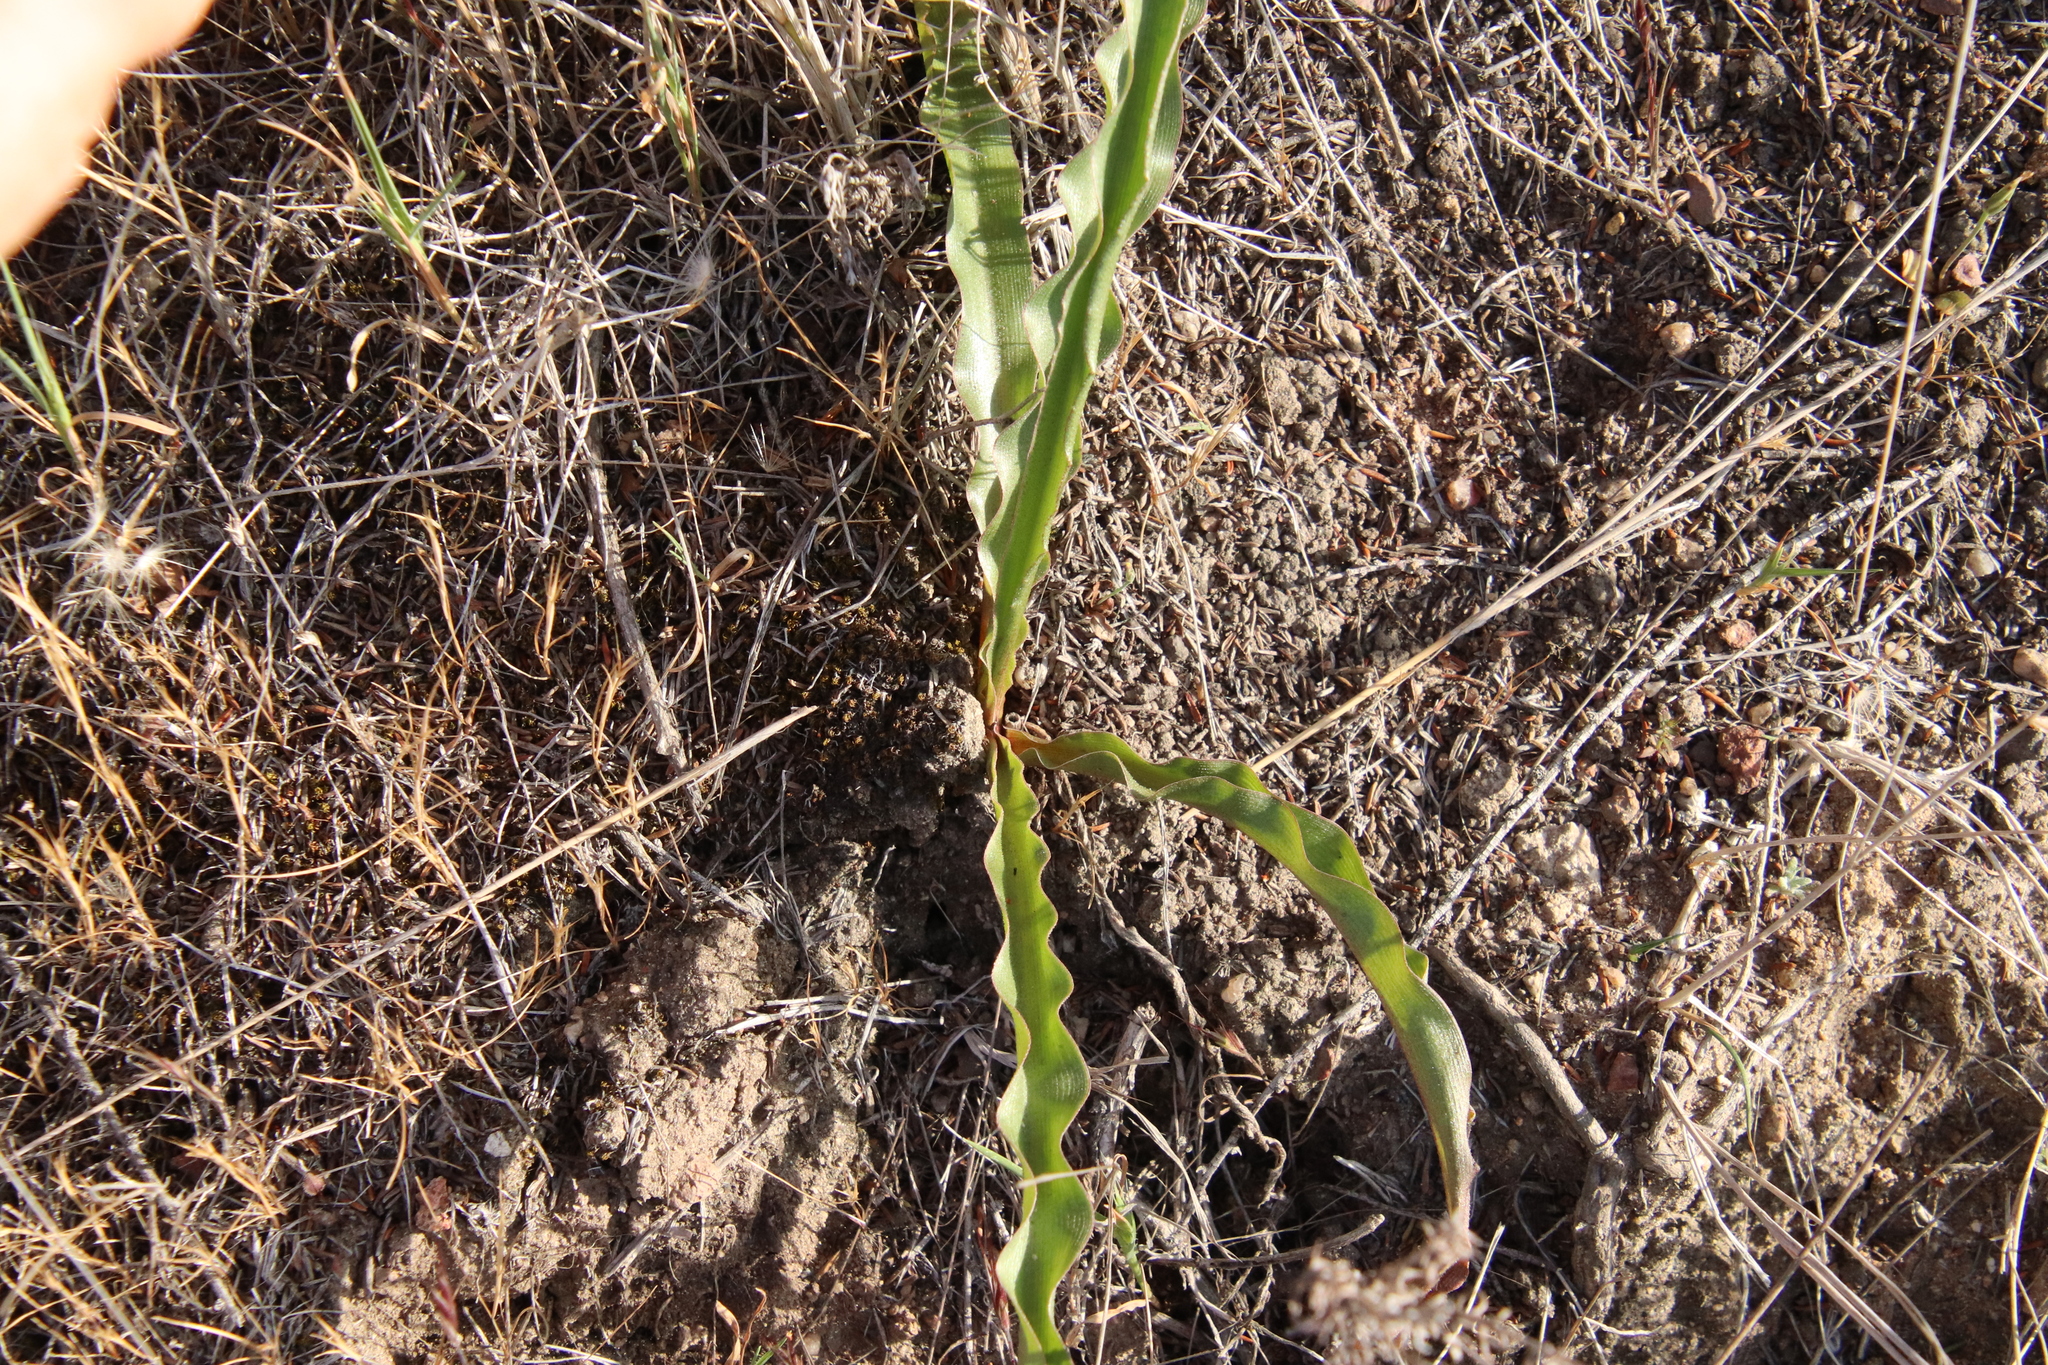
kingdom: Plantae
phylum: Tracheophyta
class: Liliopsida
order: Asparagales
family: Asparagaceae
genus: Hooveria
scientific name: Hooveria parviflora
